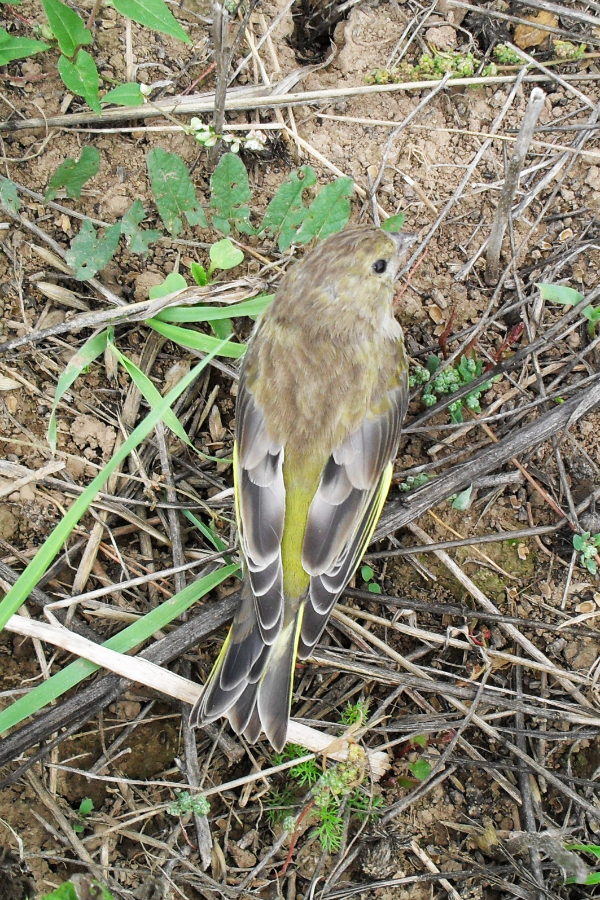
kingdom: Plantae
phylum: Tracheophyta
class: Liliopsida
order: Poales
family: Poaceae
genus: Chloris
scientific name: Chloris chloris
